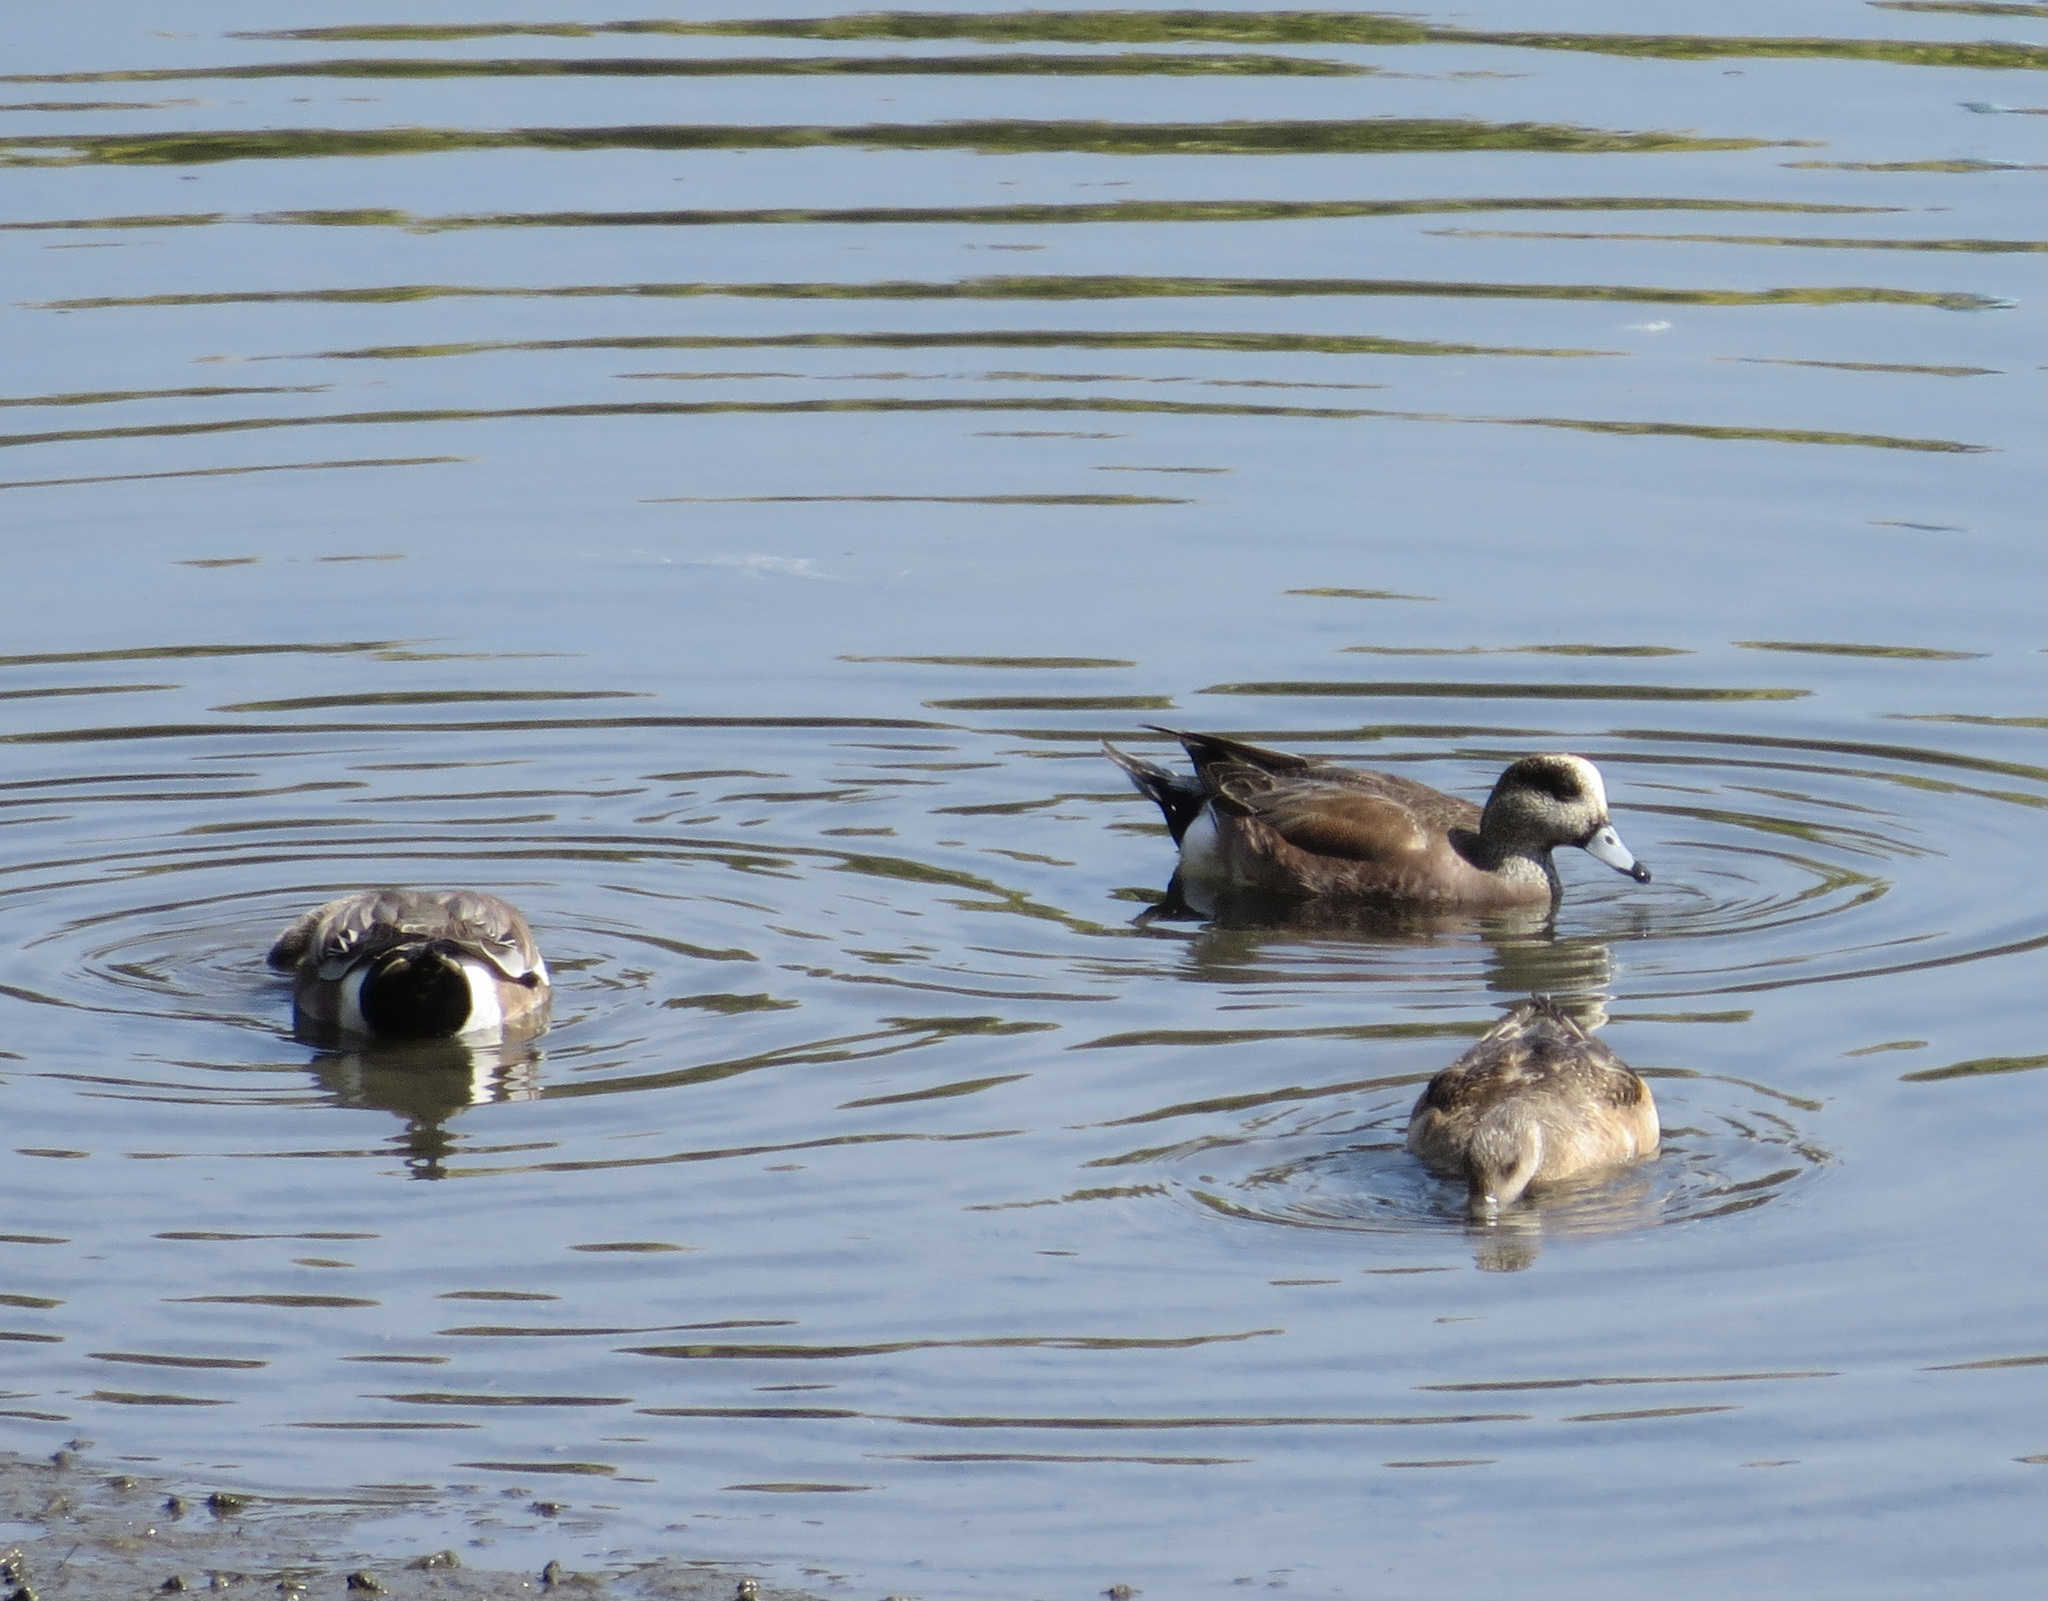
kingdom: Animalia
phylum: Chordata
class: Aves
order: Anseriformes
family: Anatidae
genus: Mareca
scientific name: Mareca americana
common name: American wigeon
